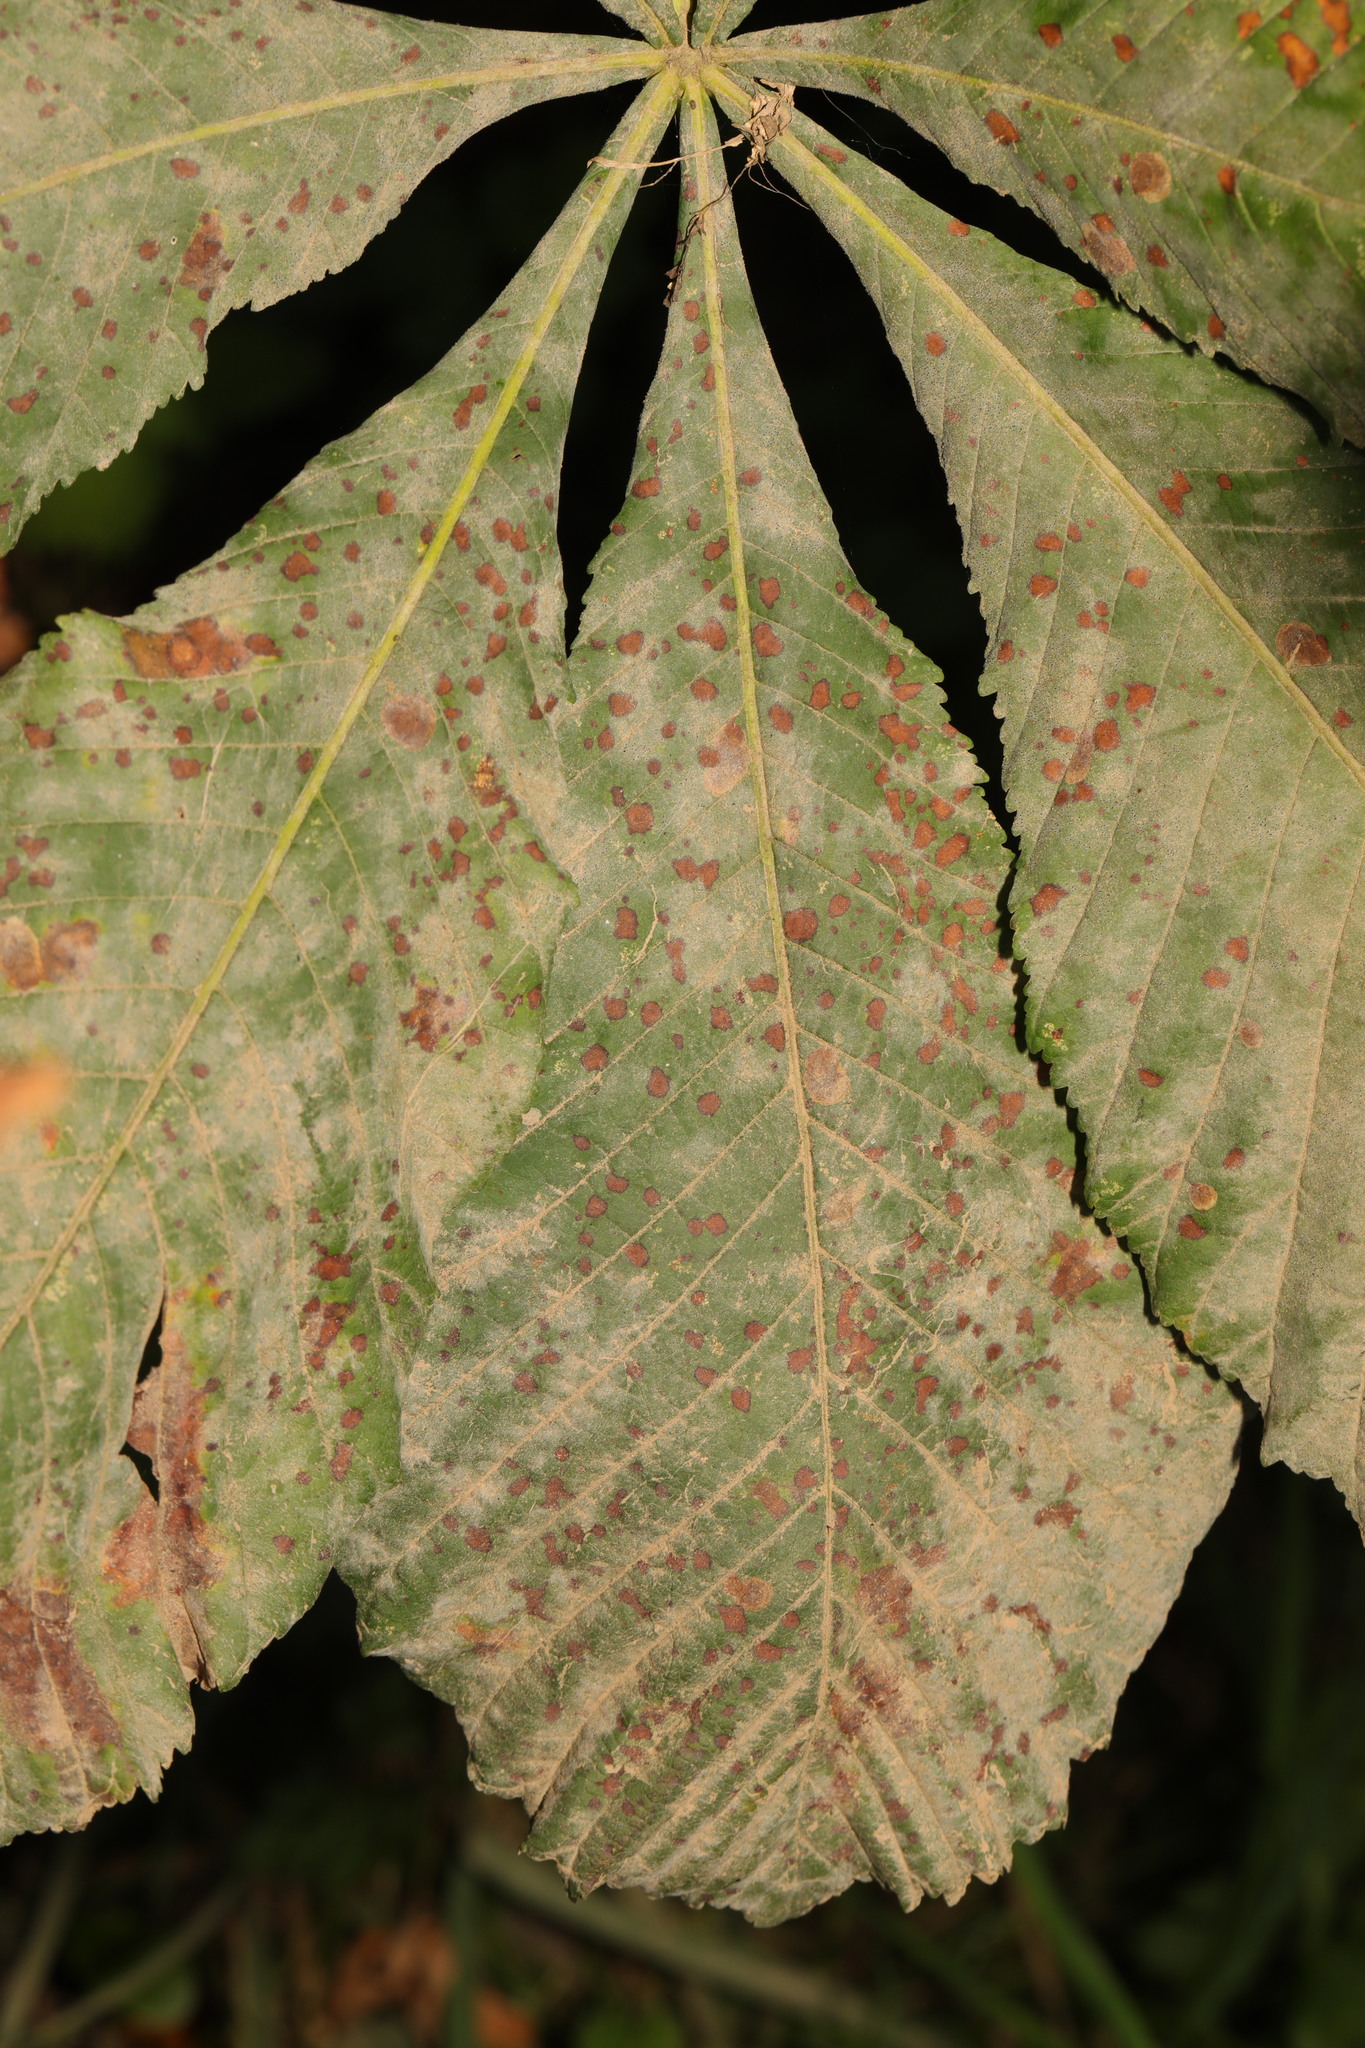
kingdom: Fungi
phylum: Ascomycota
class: Leotiomycetes
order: Helotiales
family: Erysiphaceae
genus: Erysiphe
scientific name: Erysiphe flexuosa
